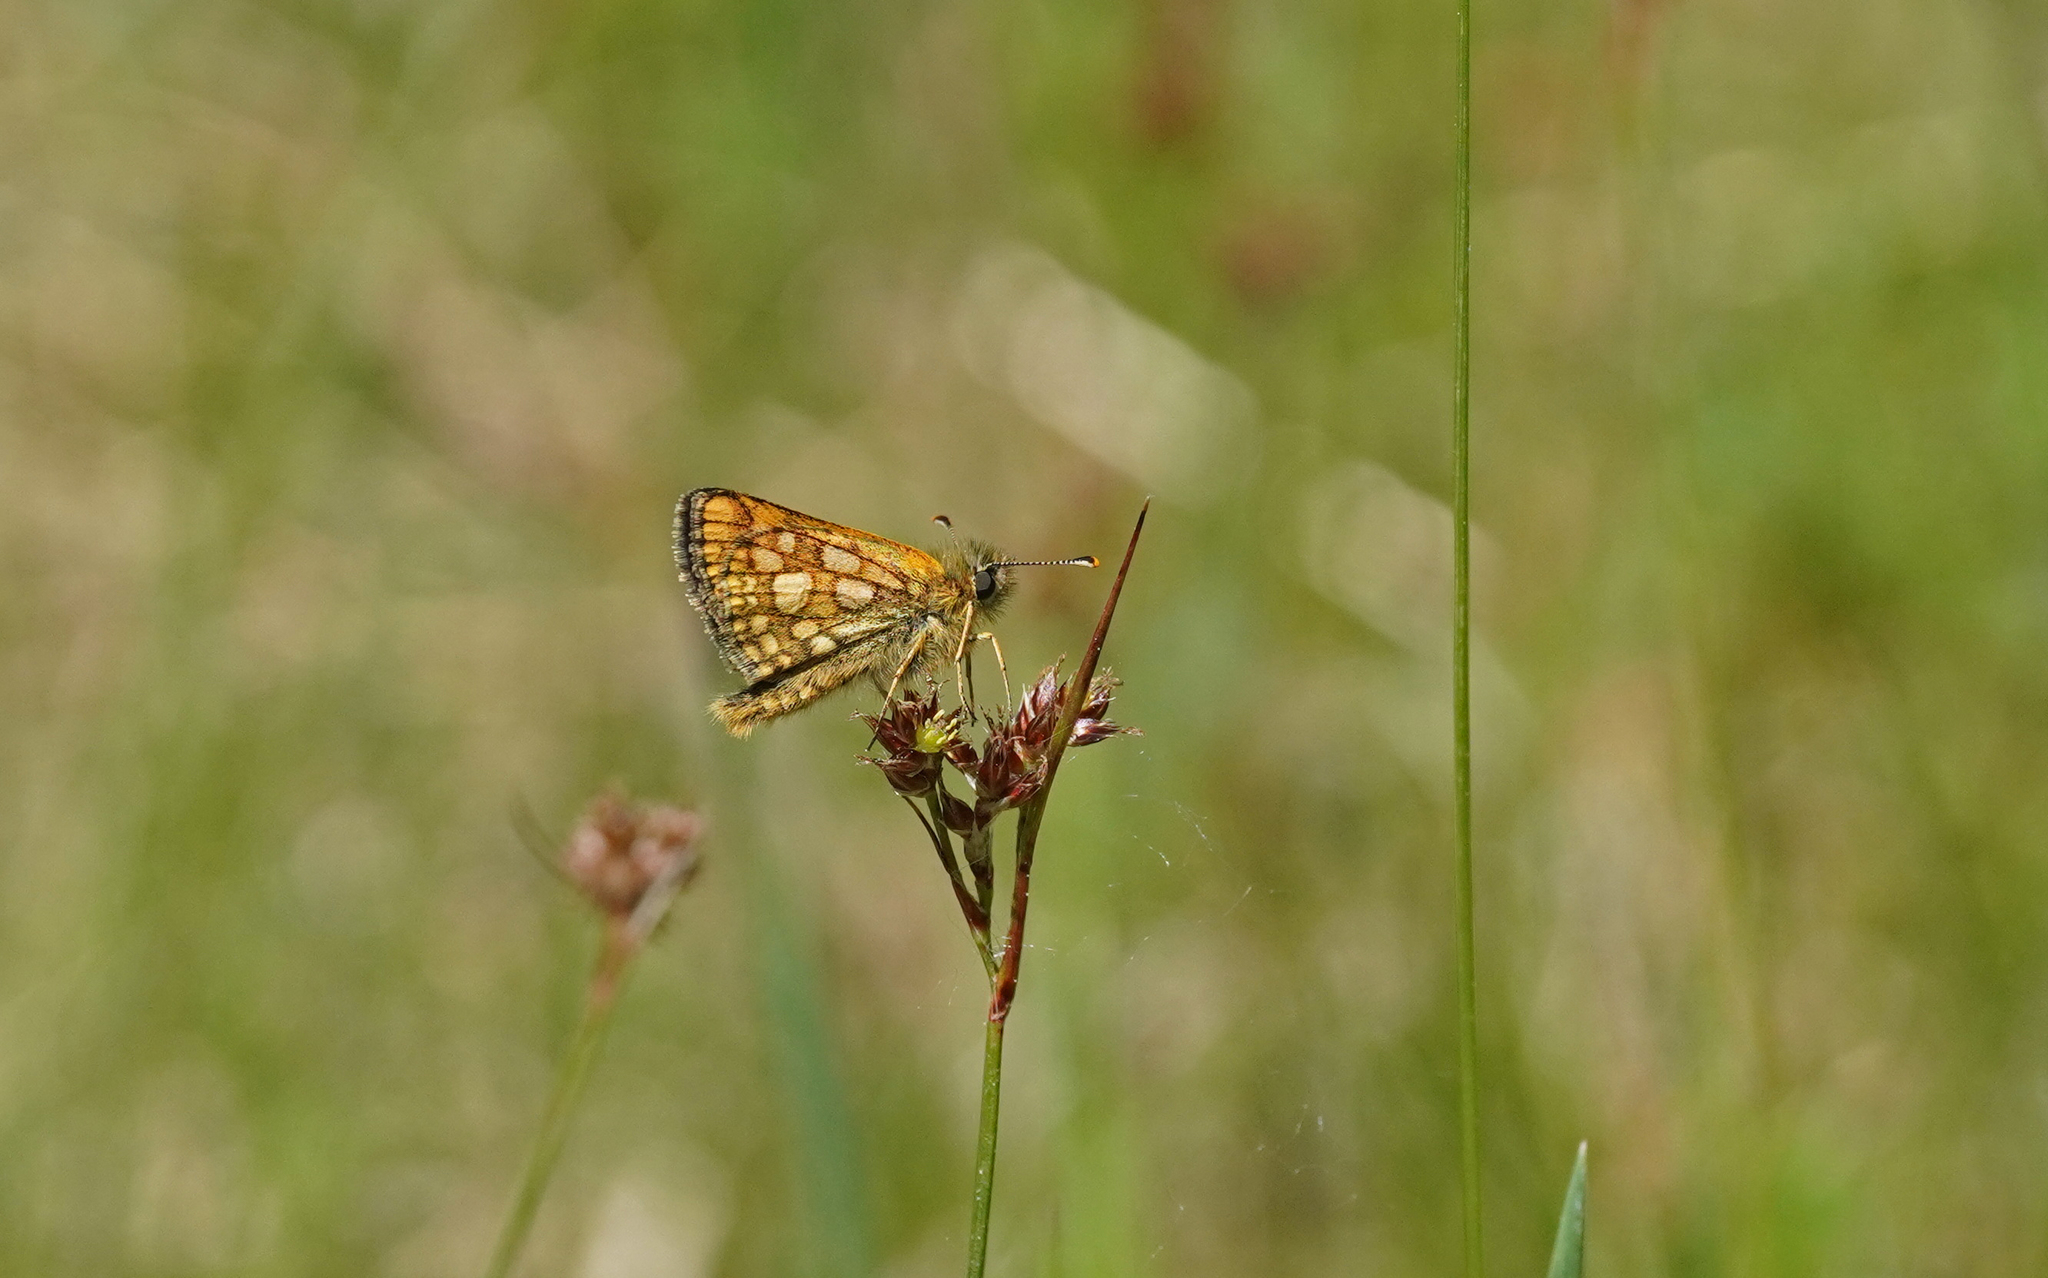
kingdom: Animalia
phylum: Arthropoda
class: Insecta
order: Lepidoptera
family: Hesperiidae
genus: Carterocephalus
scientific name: Carterocephalus palaemon
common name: Chequered skipper
